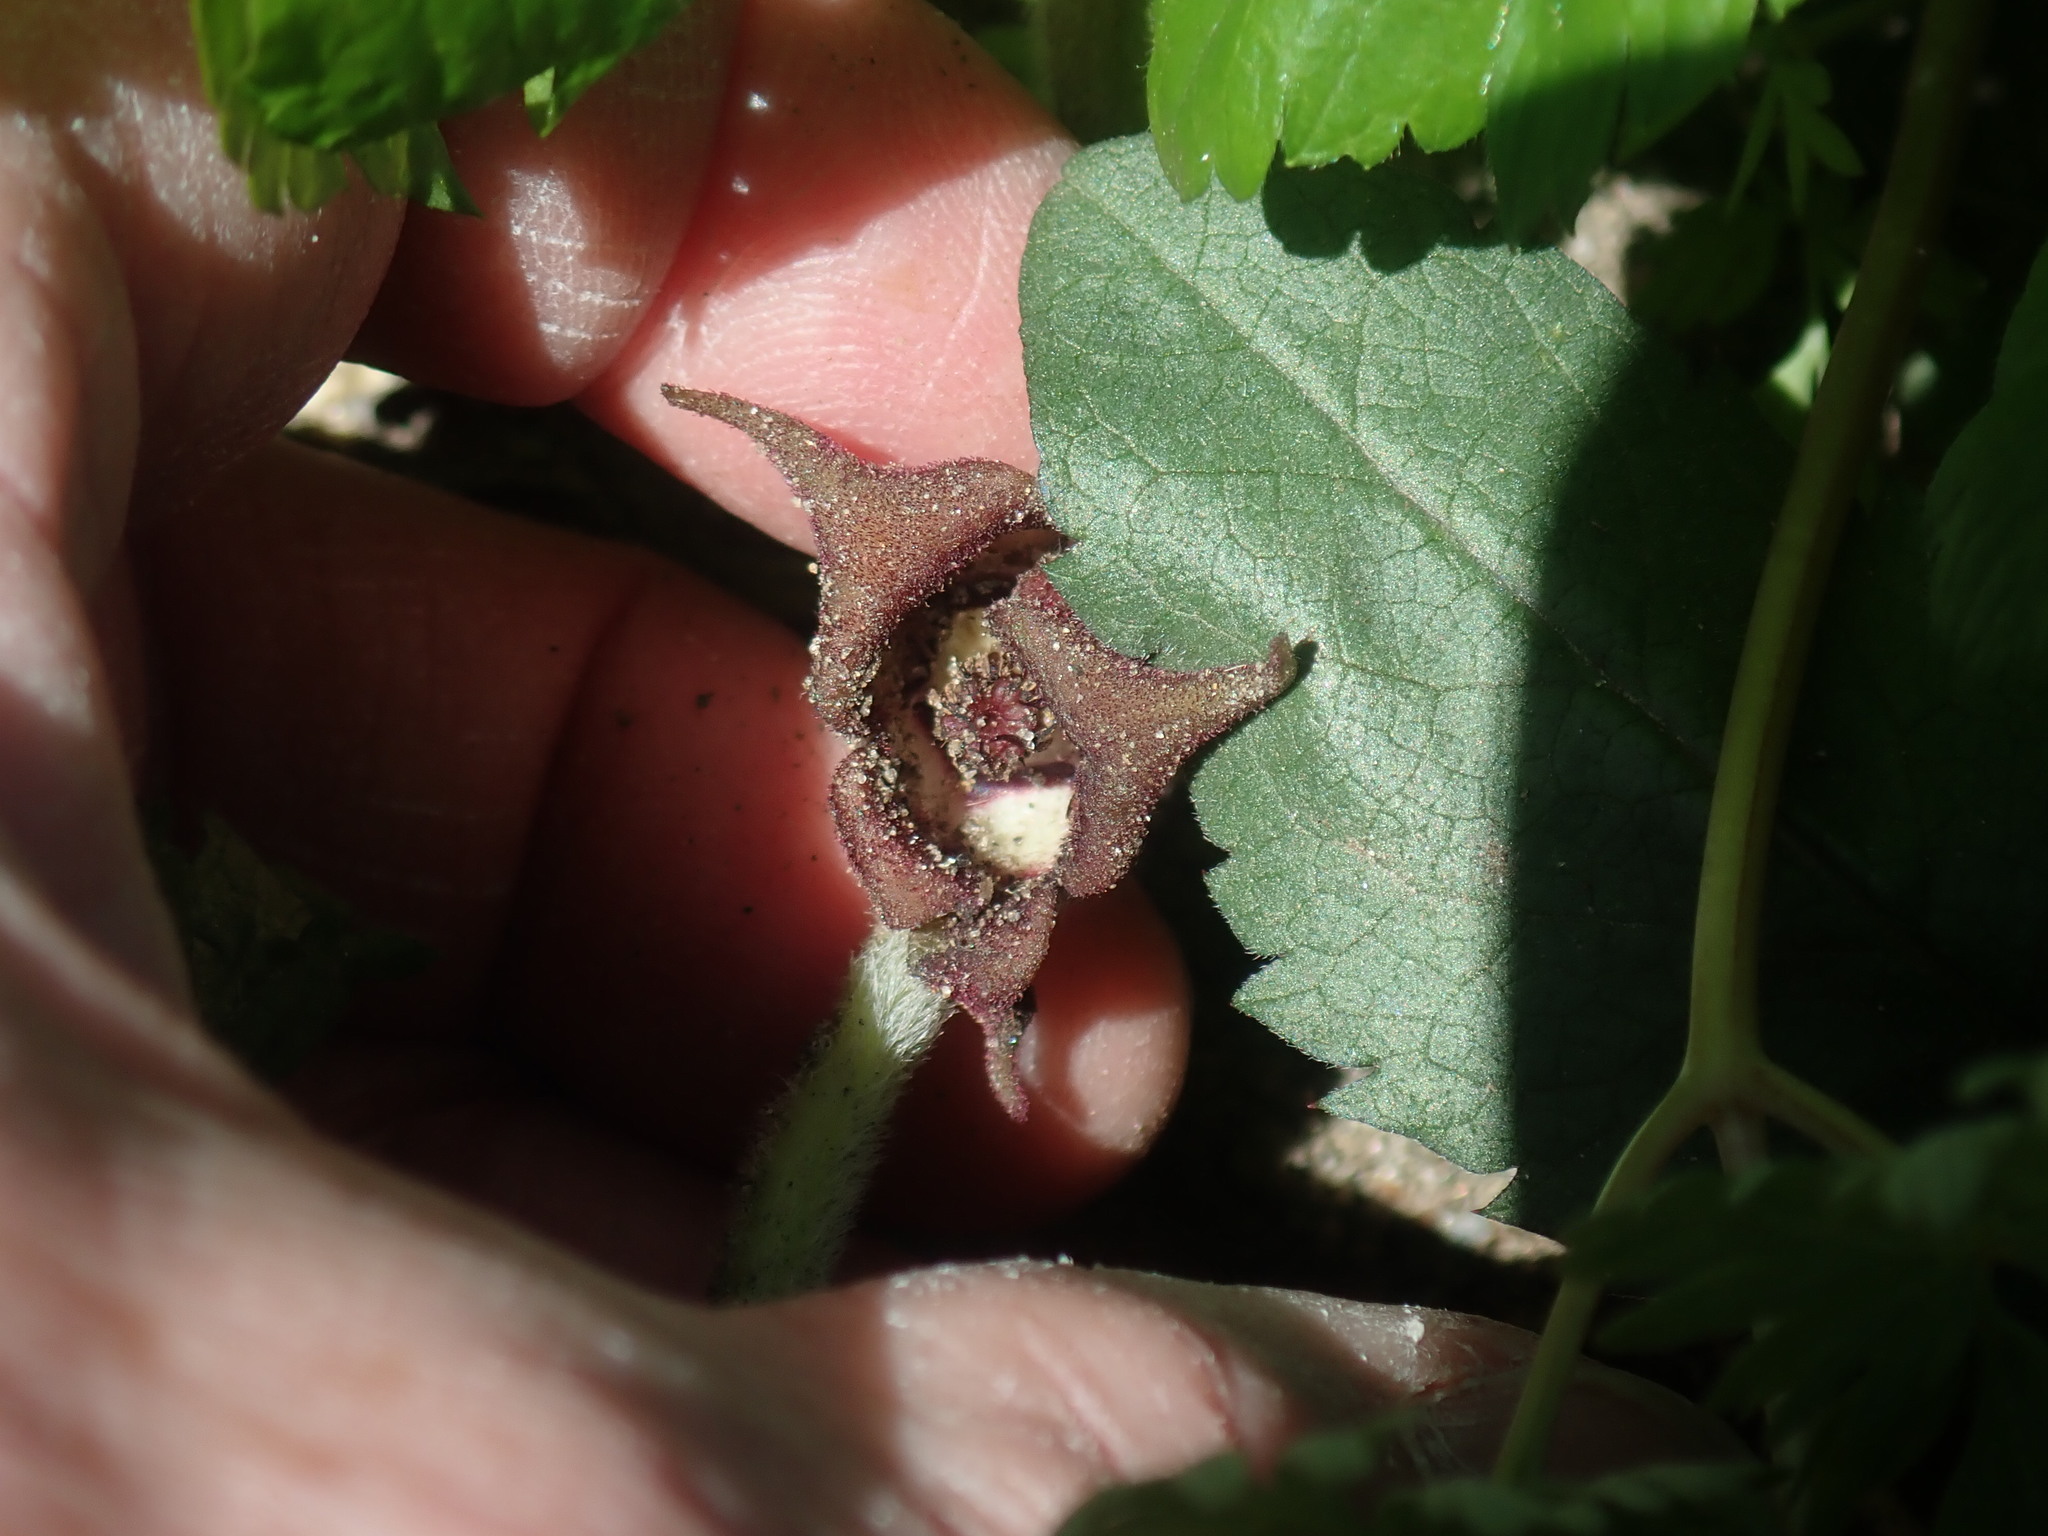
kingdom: Plantae
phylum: Tracheophyta
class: Magnoliopsida
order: Piperales
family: Aristolochiaceae
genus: Asarum
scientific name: Asarum canadense
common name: Wild ginger
